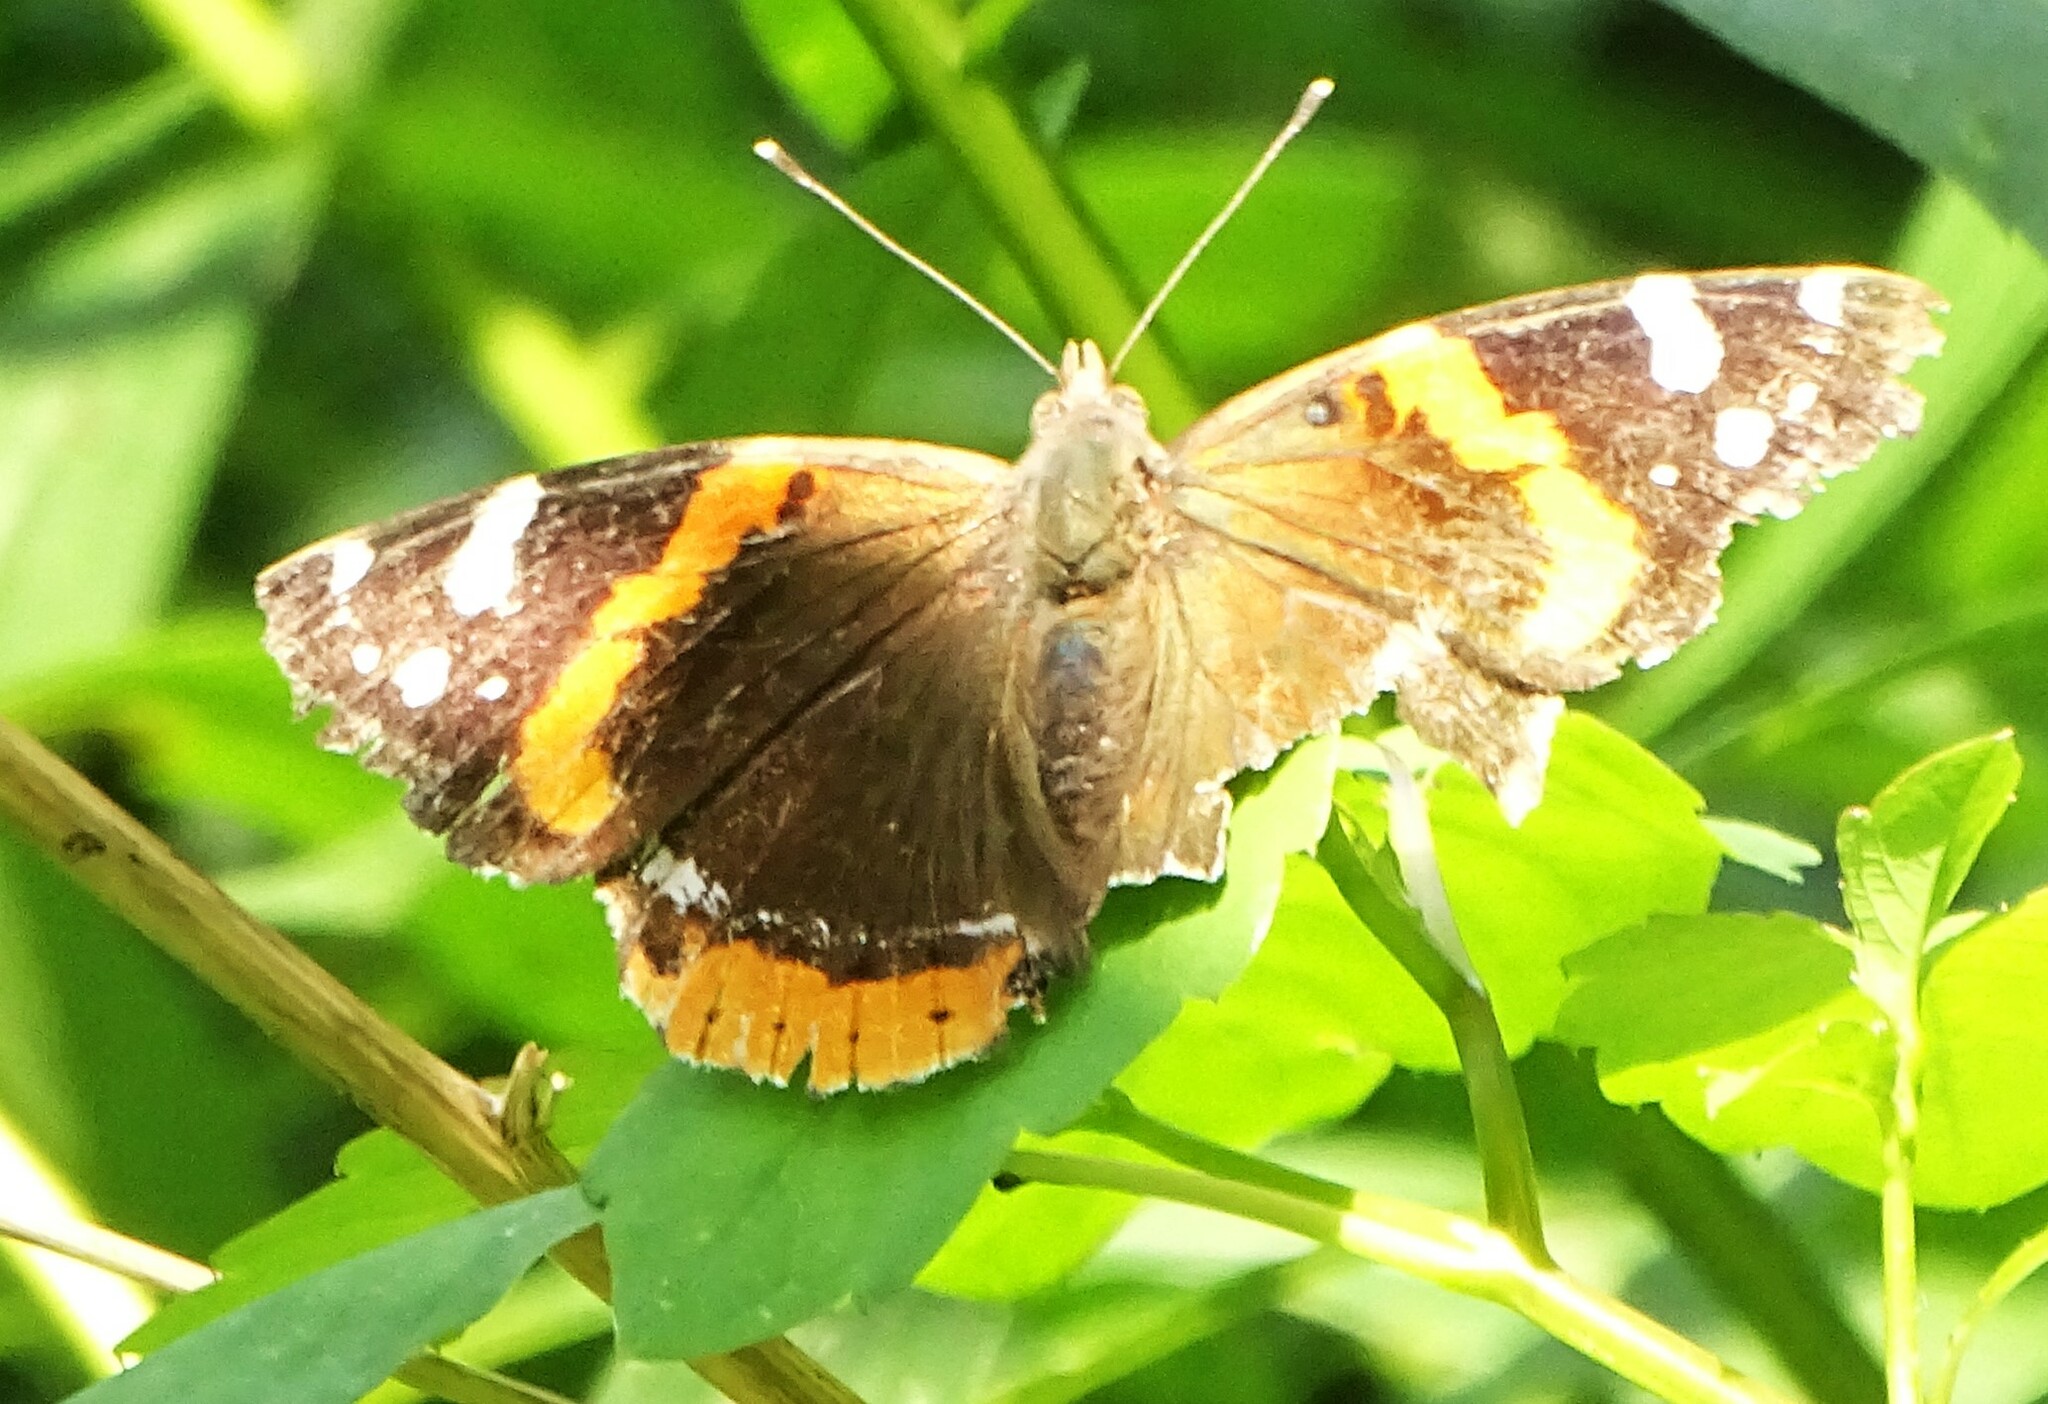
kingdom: Animalia
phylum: Arthropoda
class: Insecta
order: Lepidoptera
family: Nymphalidae
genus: Vanessa
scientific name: Vanessa atalanta
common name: Red admiral
